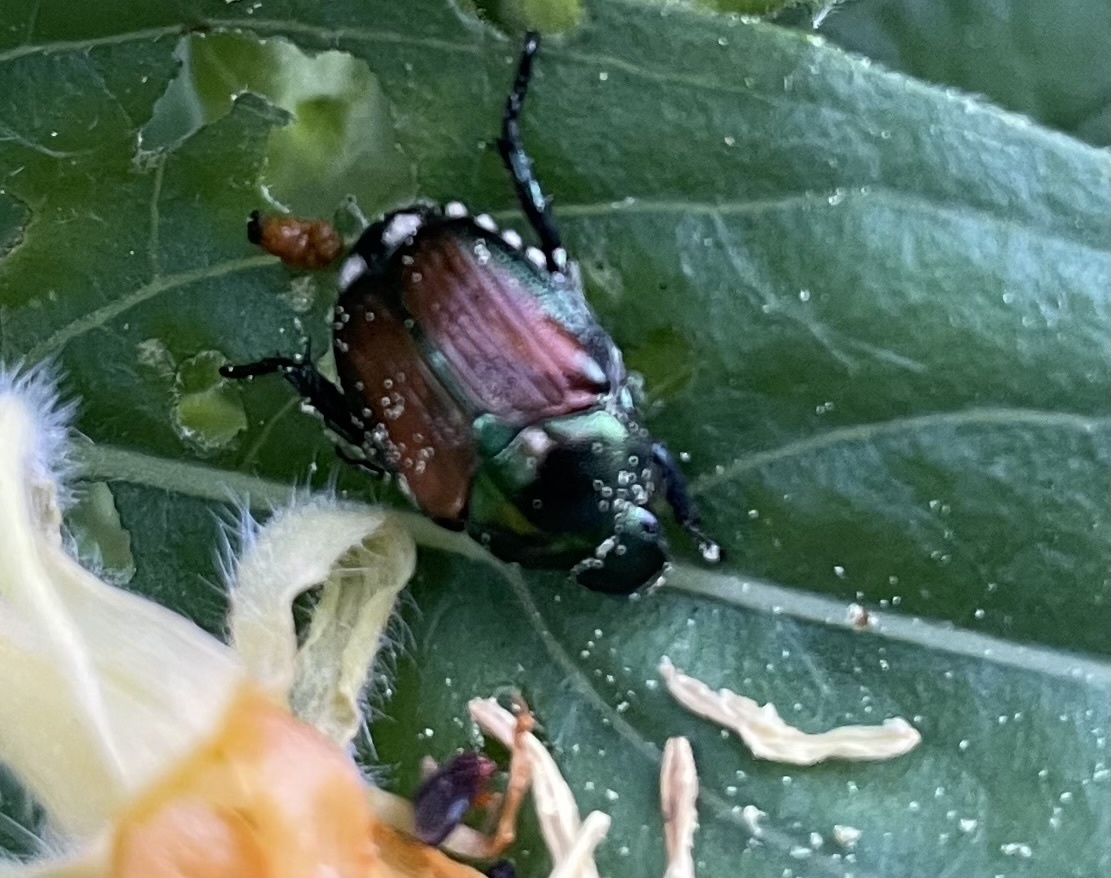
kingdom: Animalia
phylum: Arthropoda
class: Insecta
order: Coleoptera
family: Scarabaeidae
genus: Popillia
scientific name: Popillia japonica
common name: Japanese beetle
